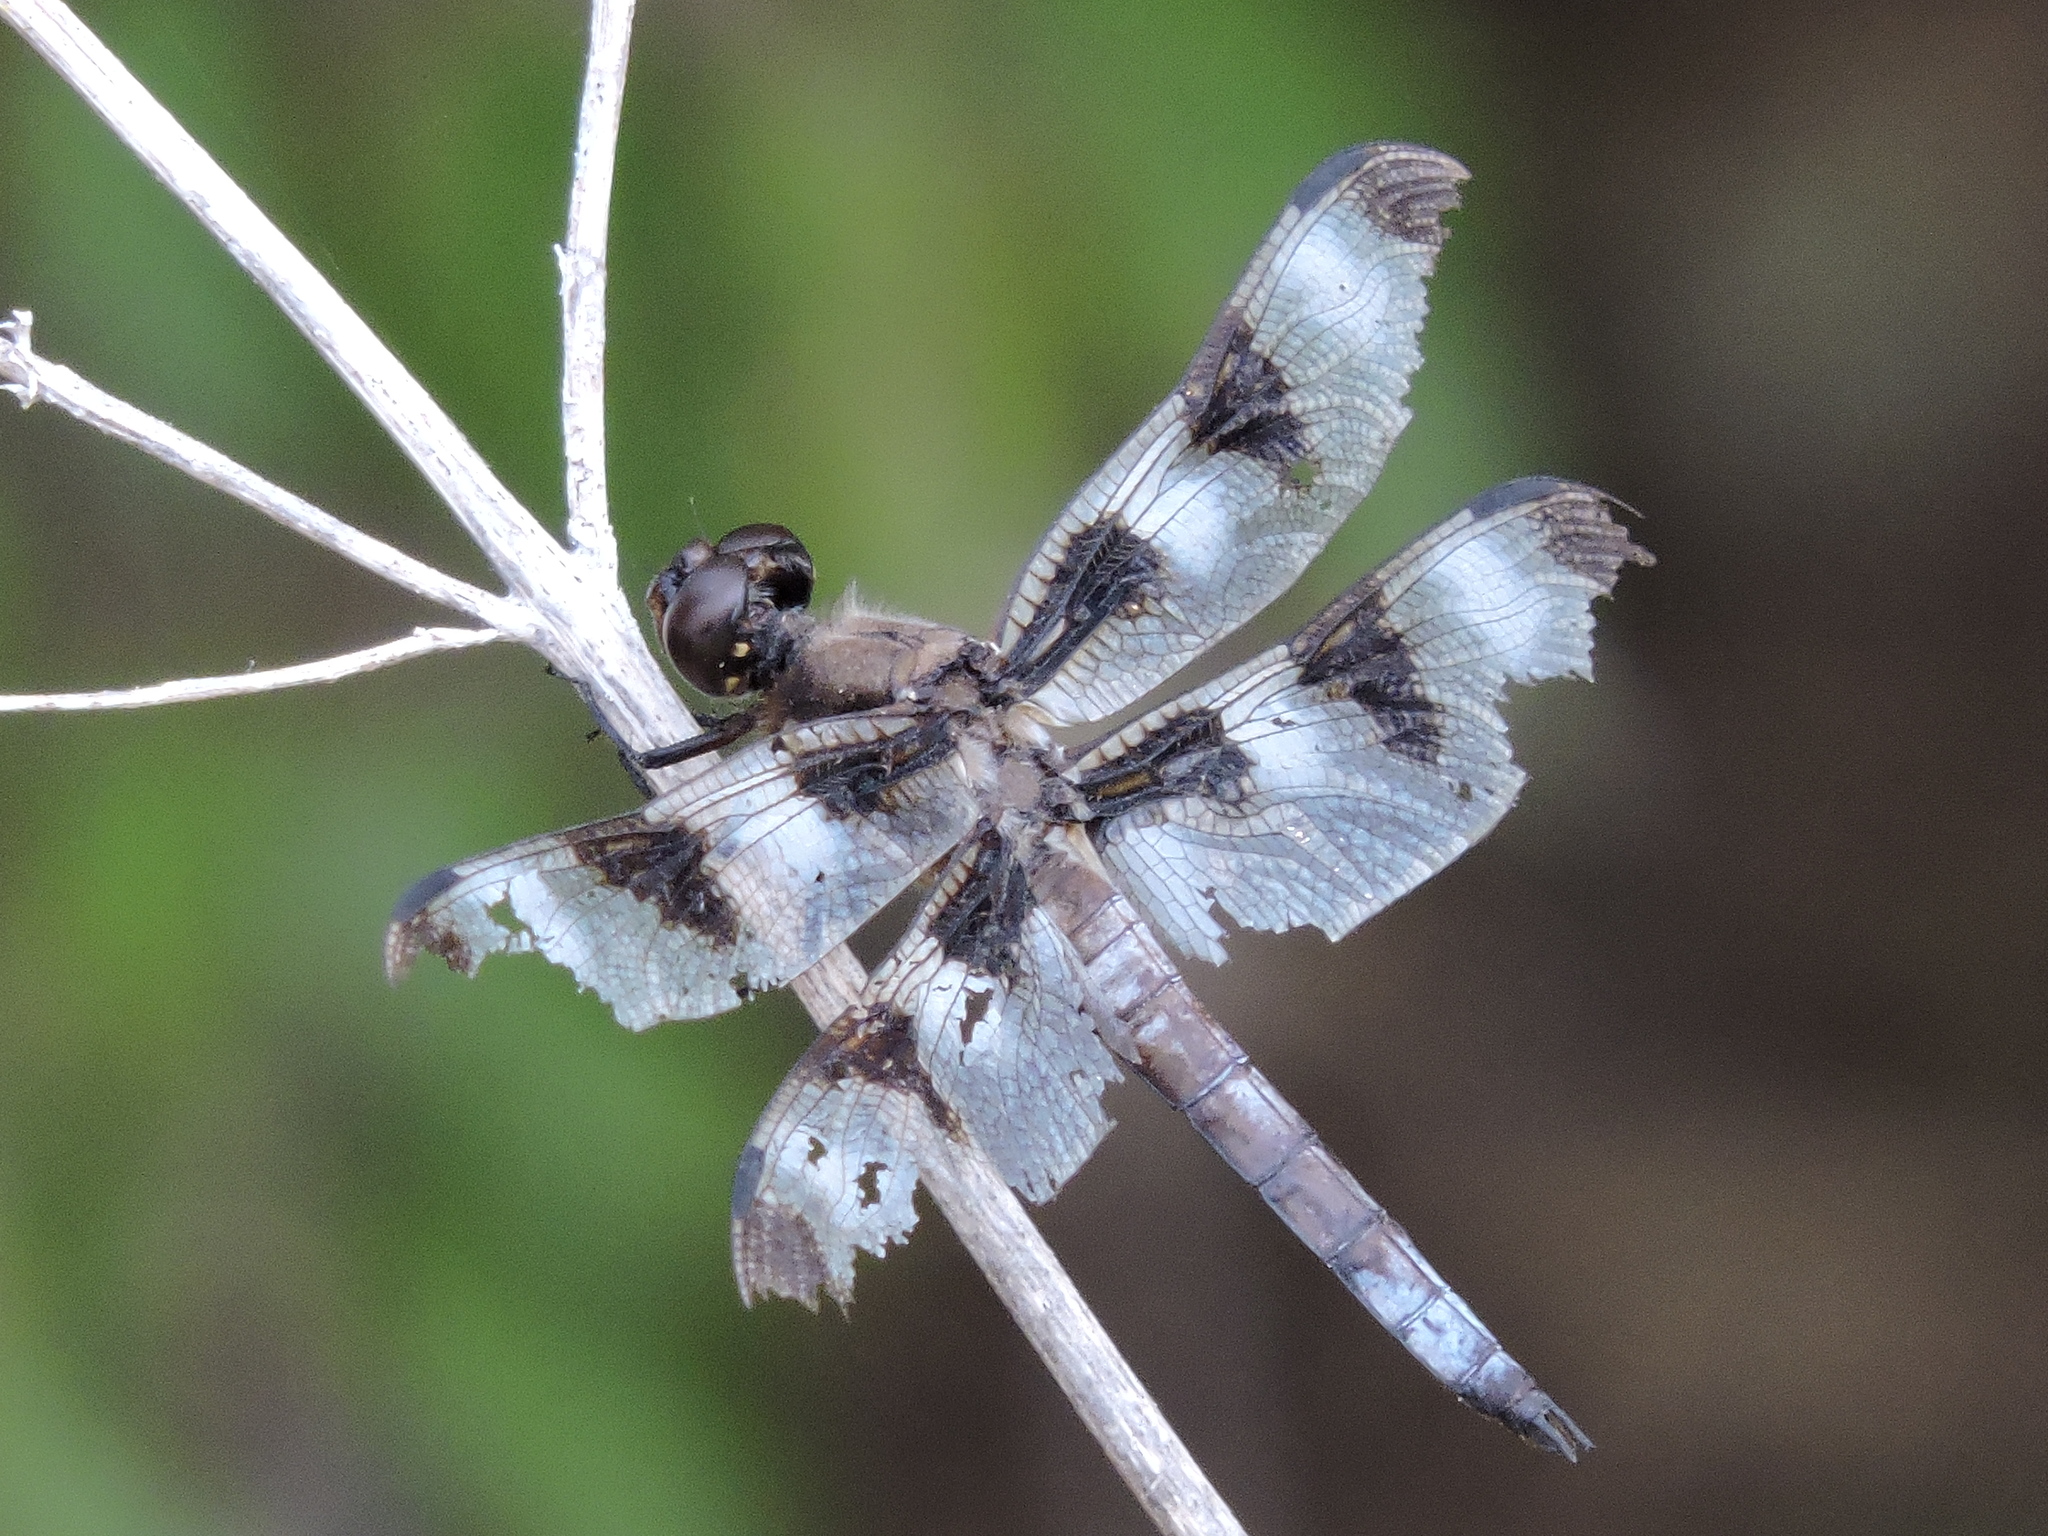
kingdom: Animalia
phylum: Arthropoda
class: Insecta
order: Odonata
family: Libellulidae
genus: Libellula
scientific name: Libellula pulchella
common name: Twelve-spotted skimmer
